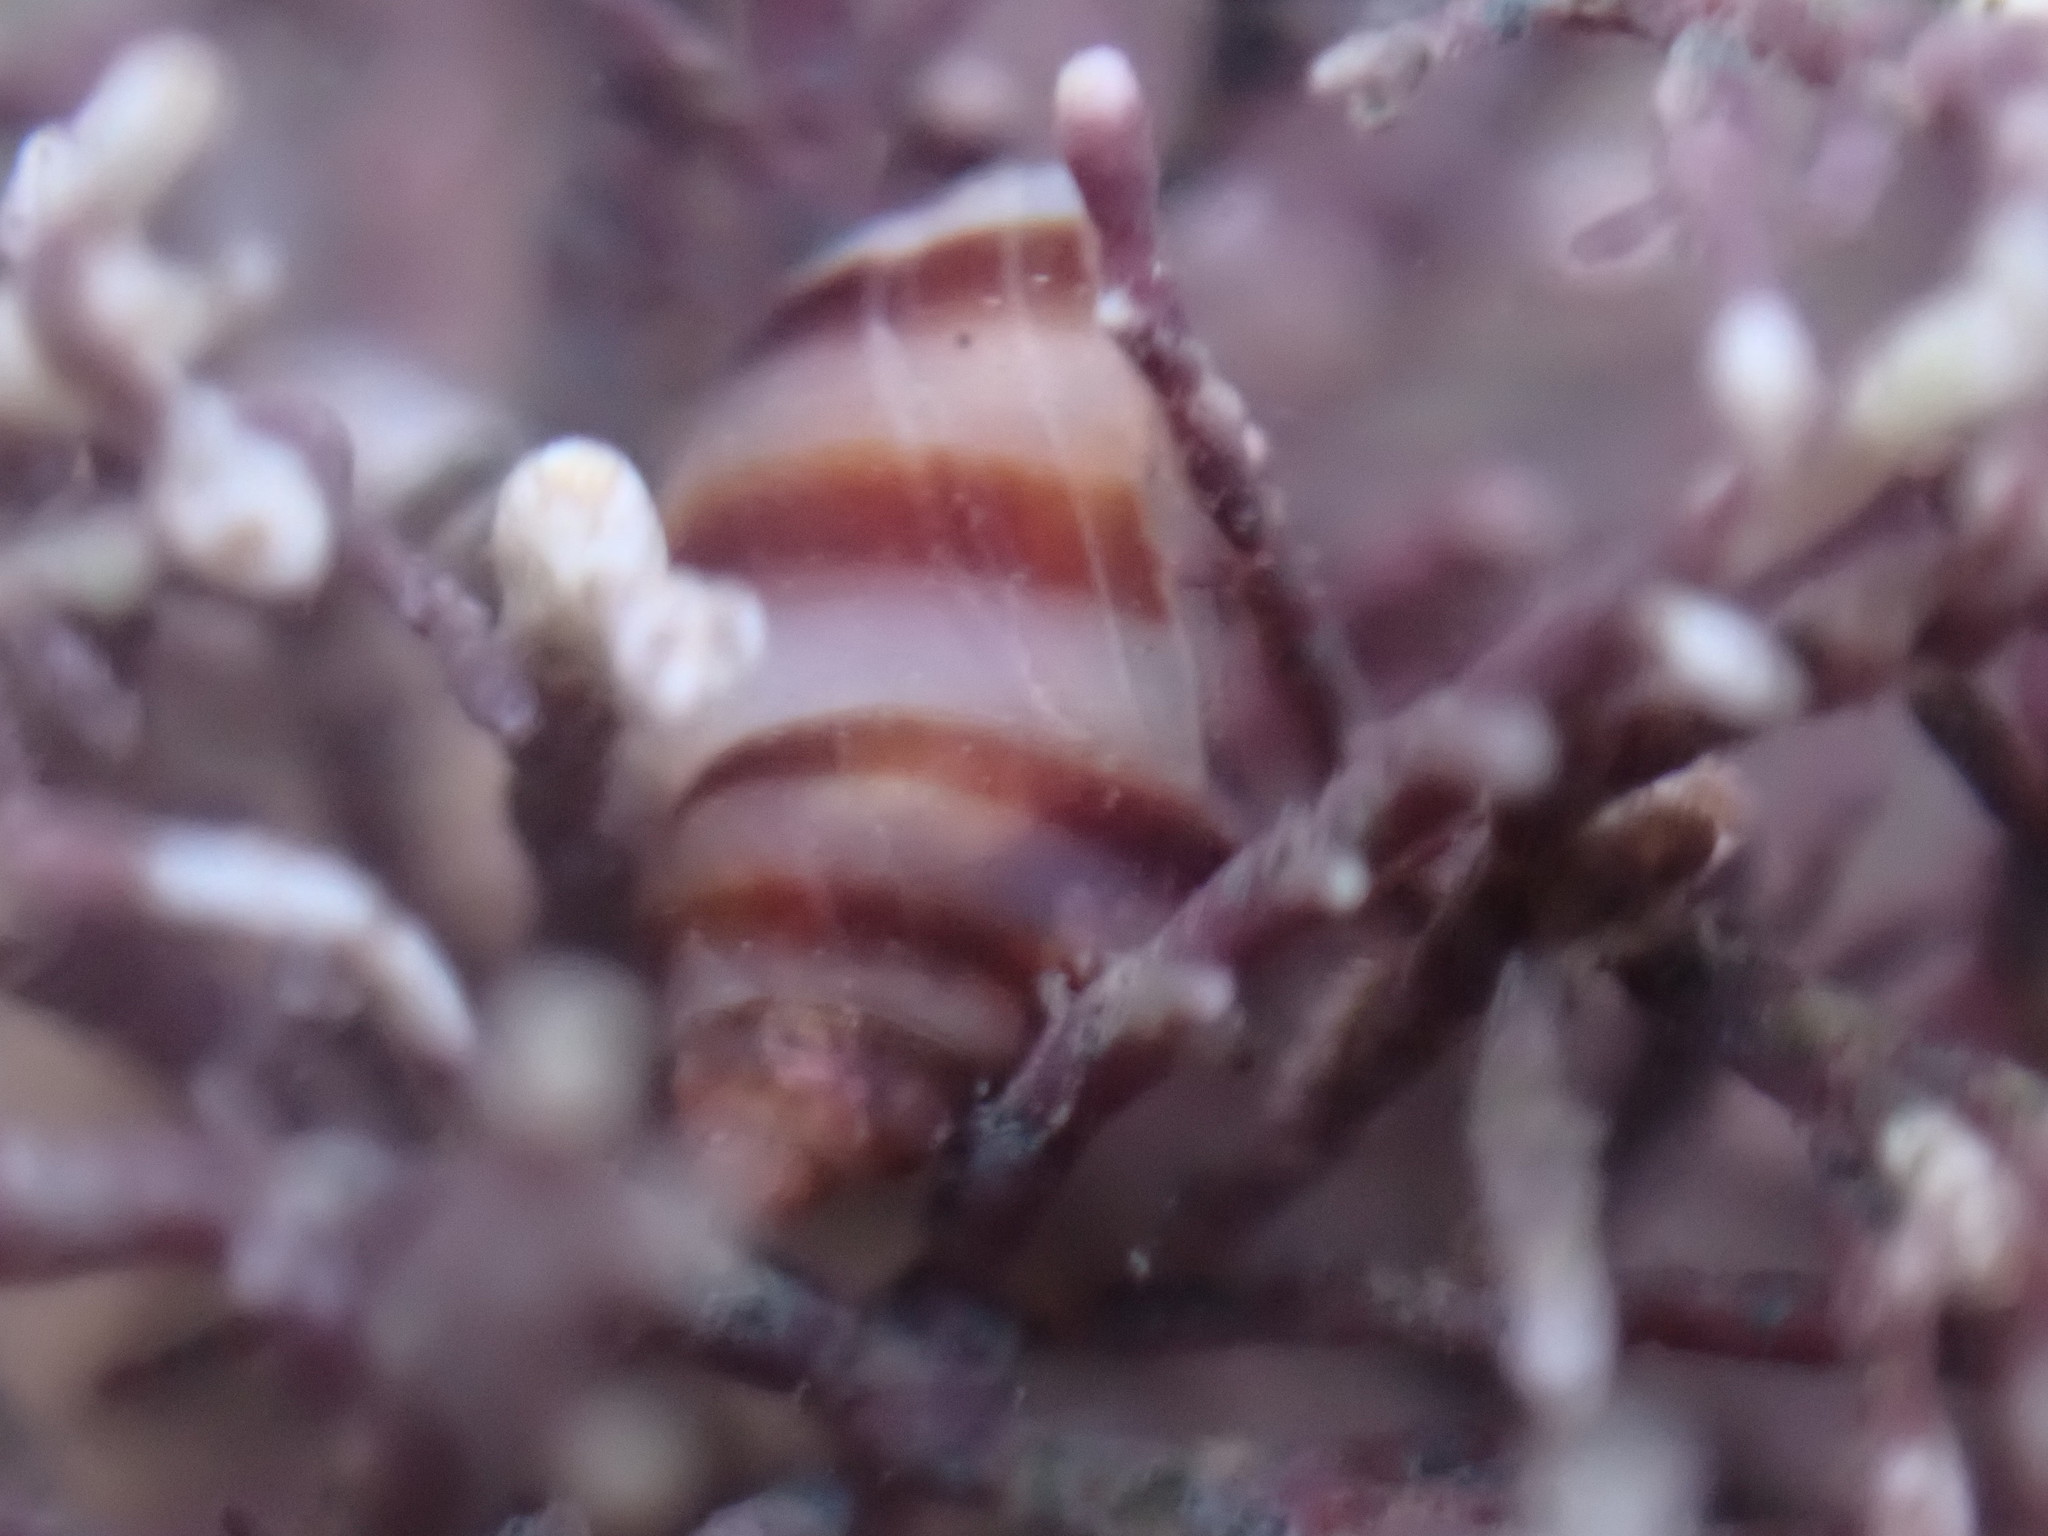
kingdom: Animalia
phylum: Mollusca
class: Gastropoda
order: Littorinimorpha
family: Littorinidae
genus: Lacuna
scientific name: Lacuna vincta
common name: Banded chink shell
